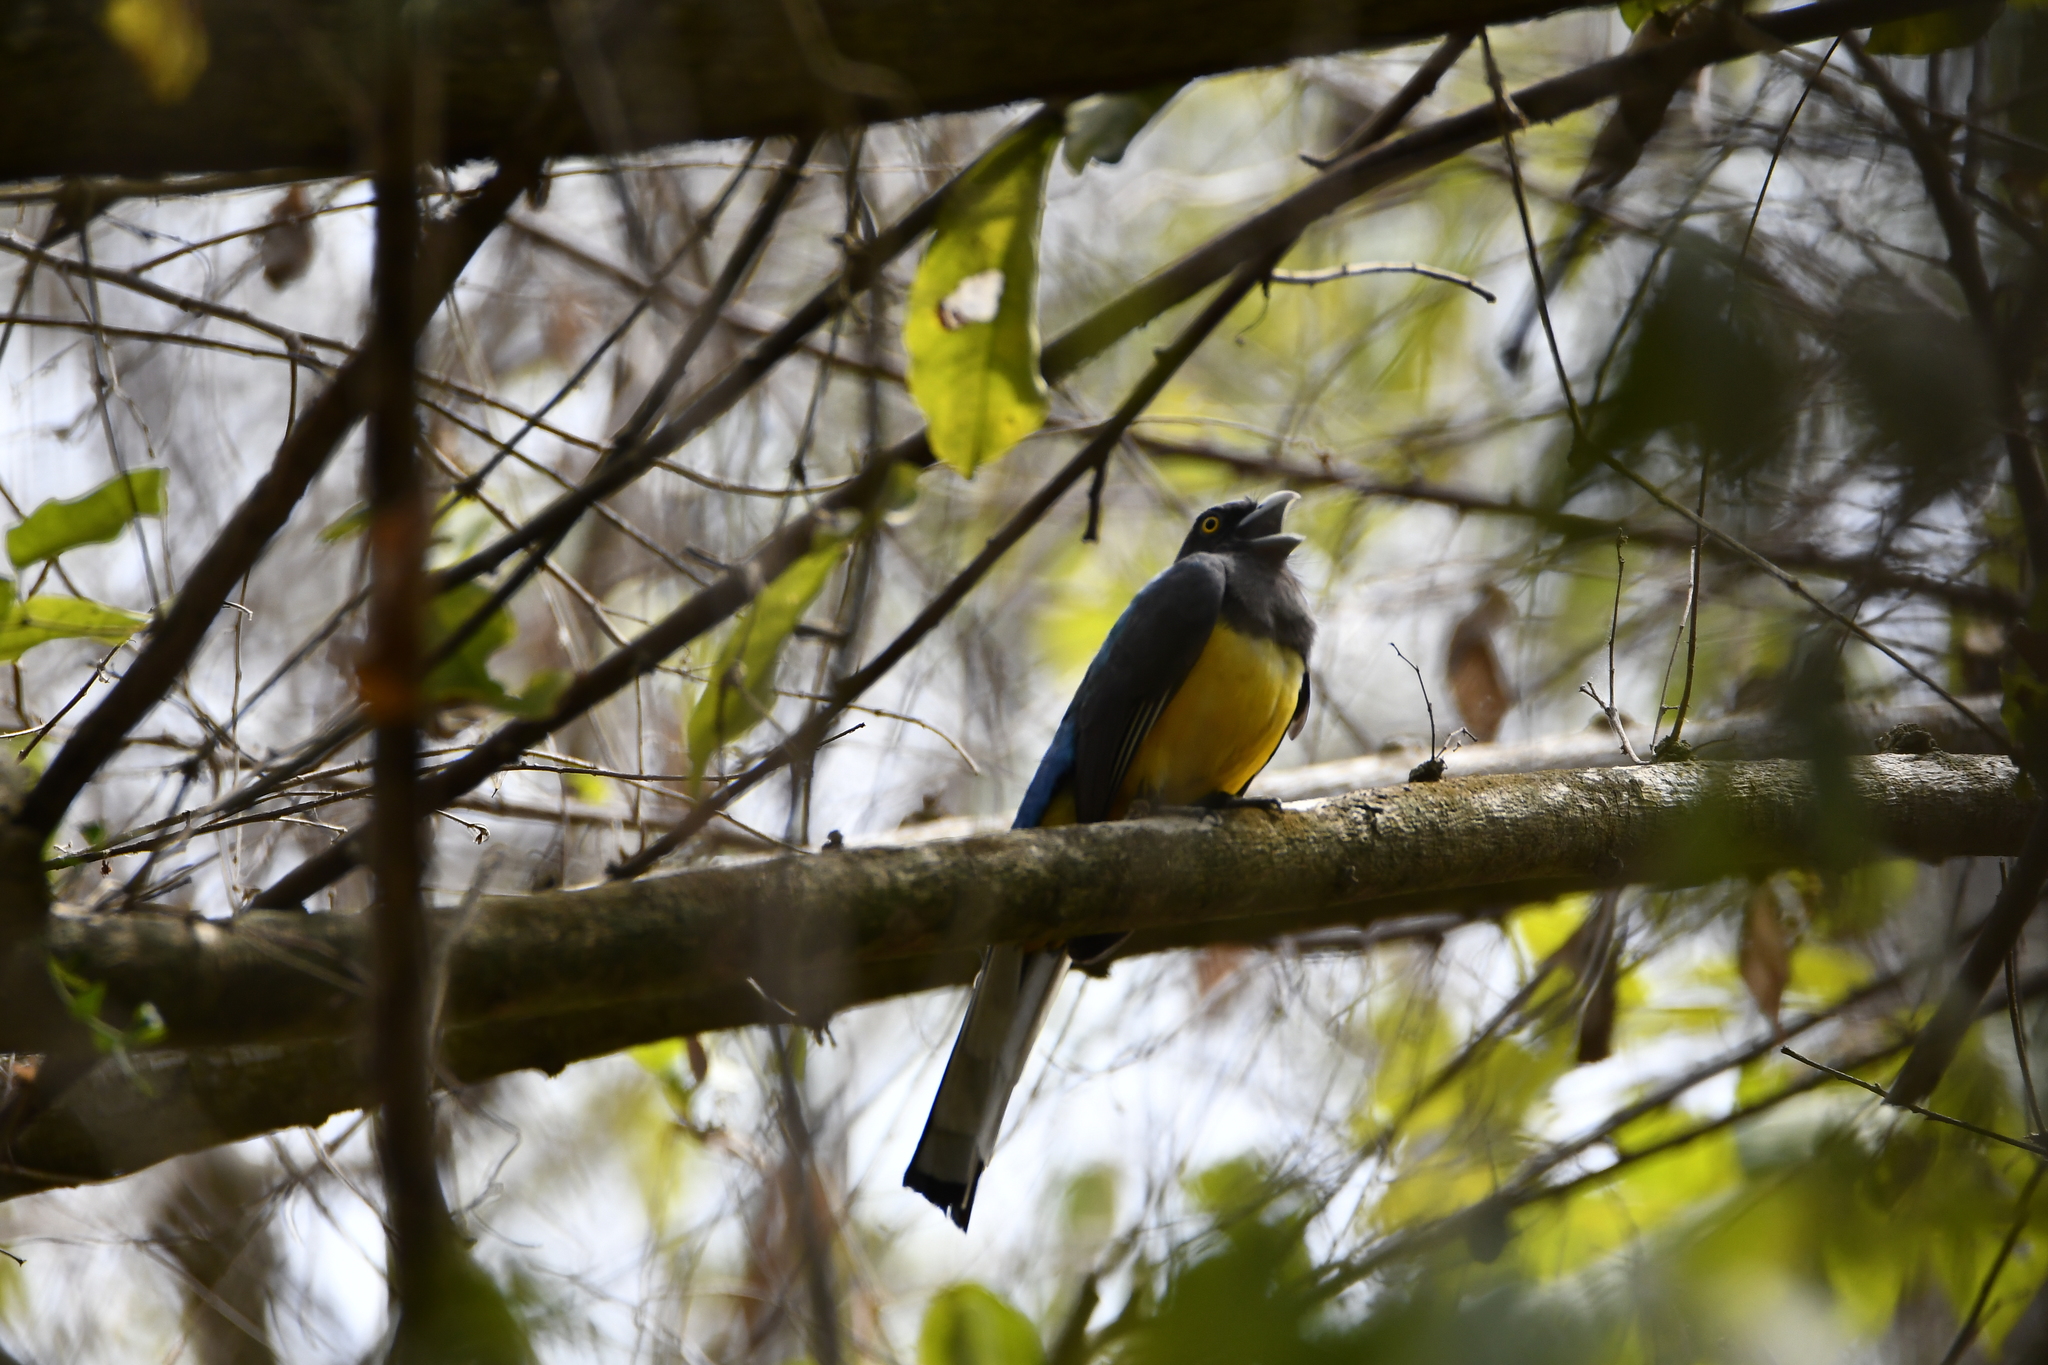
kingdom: Animalia
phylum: Chordata
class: Aves
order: Trogoniformes
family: Trogonidae
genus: Trogon
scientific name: Trogon citreolus
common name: Citreoline trogon
